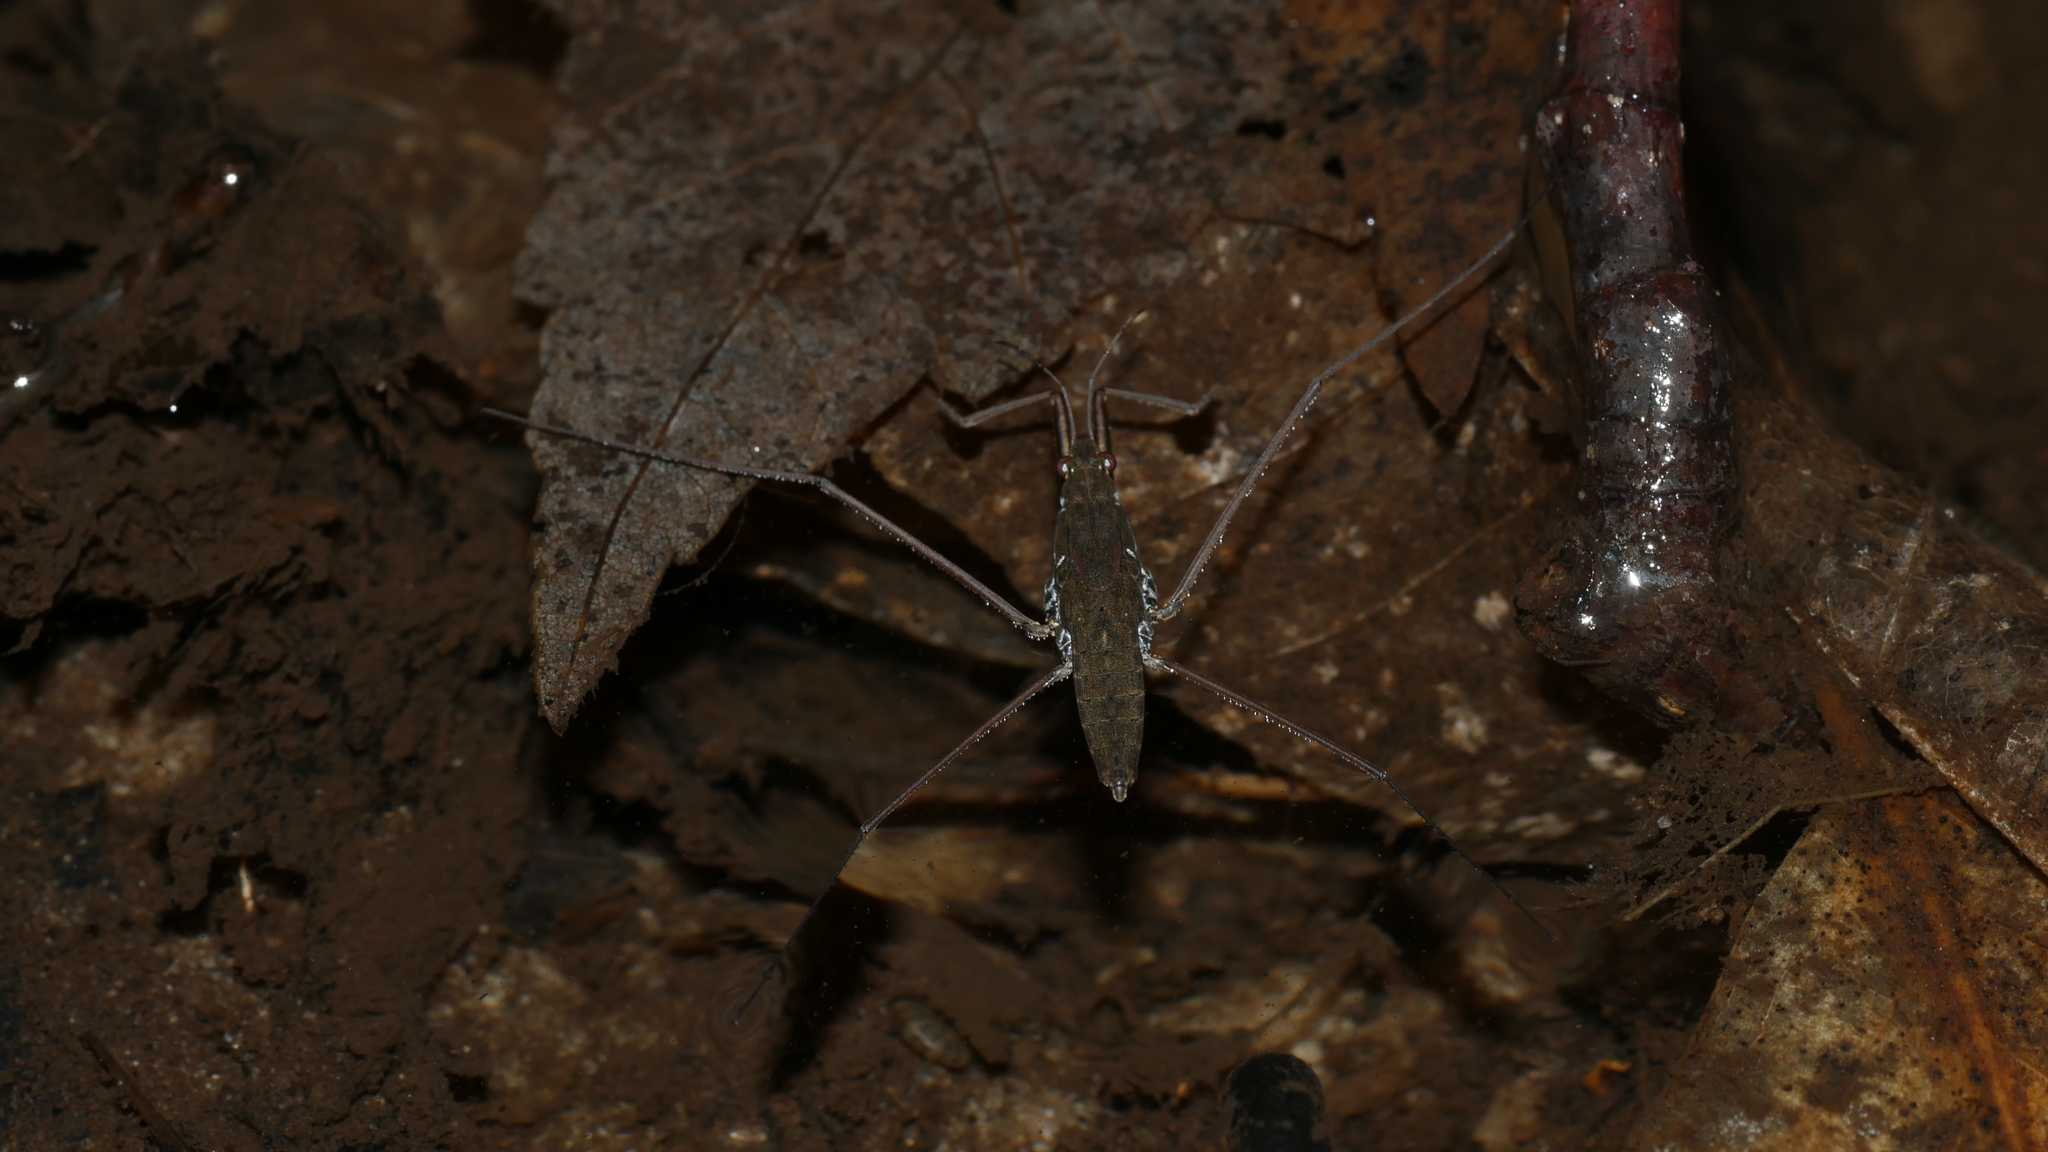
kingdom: Animalia
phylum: Arthropoda
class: Insecta
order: Hemiptera
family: Gerridae
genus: Aquarius
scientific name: Aquarius
